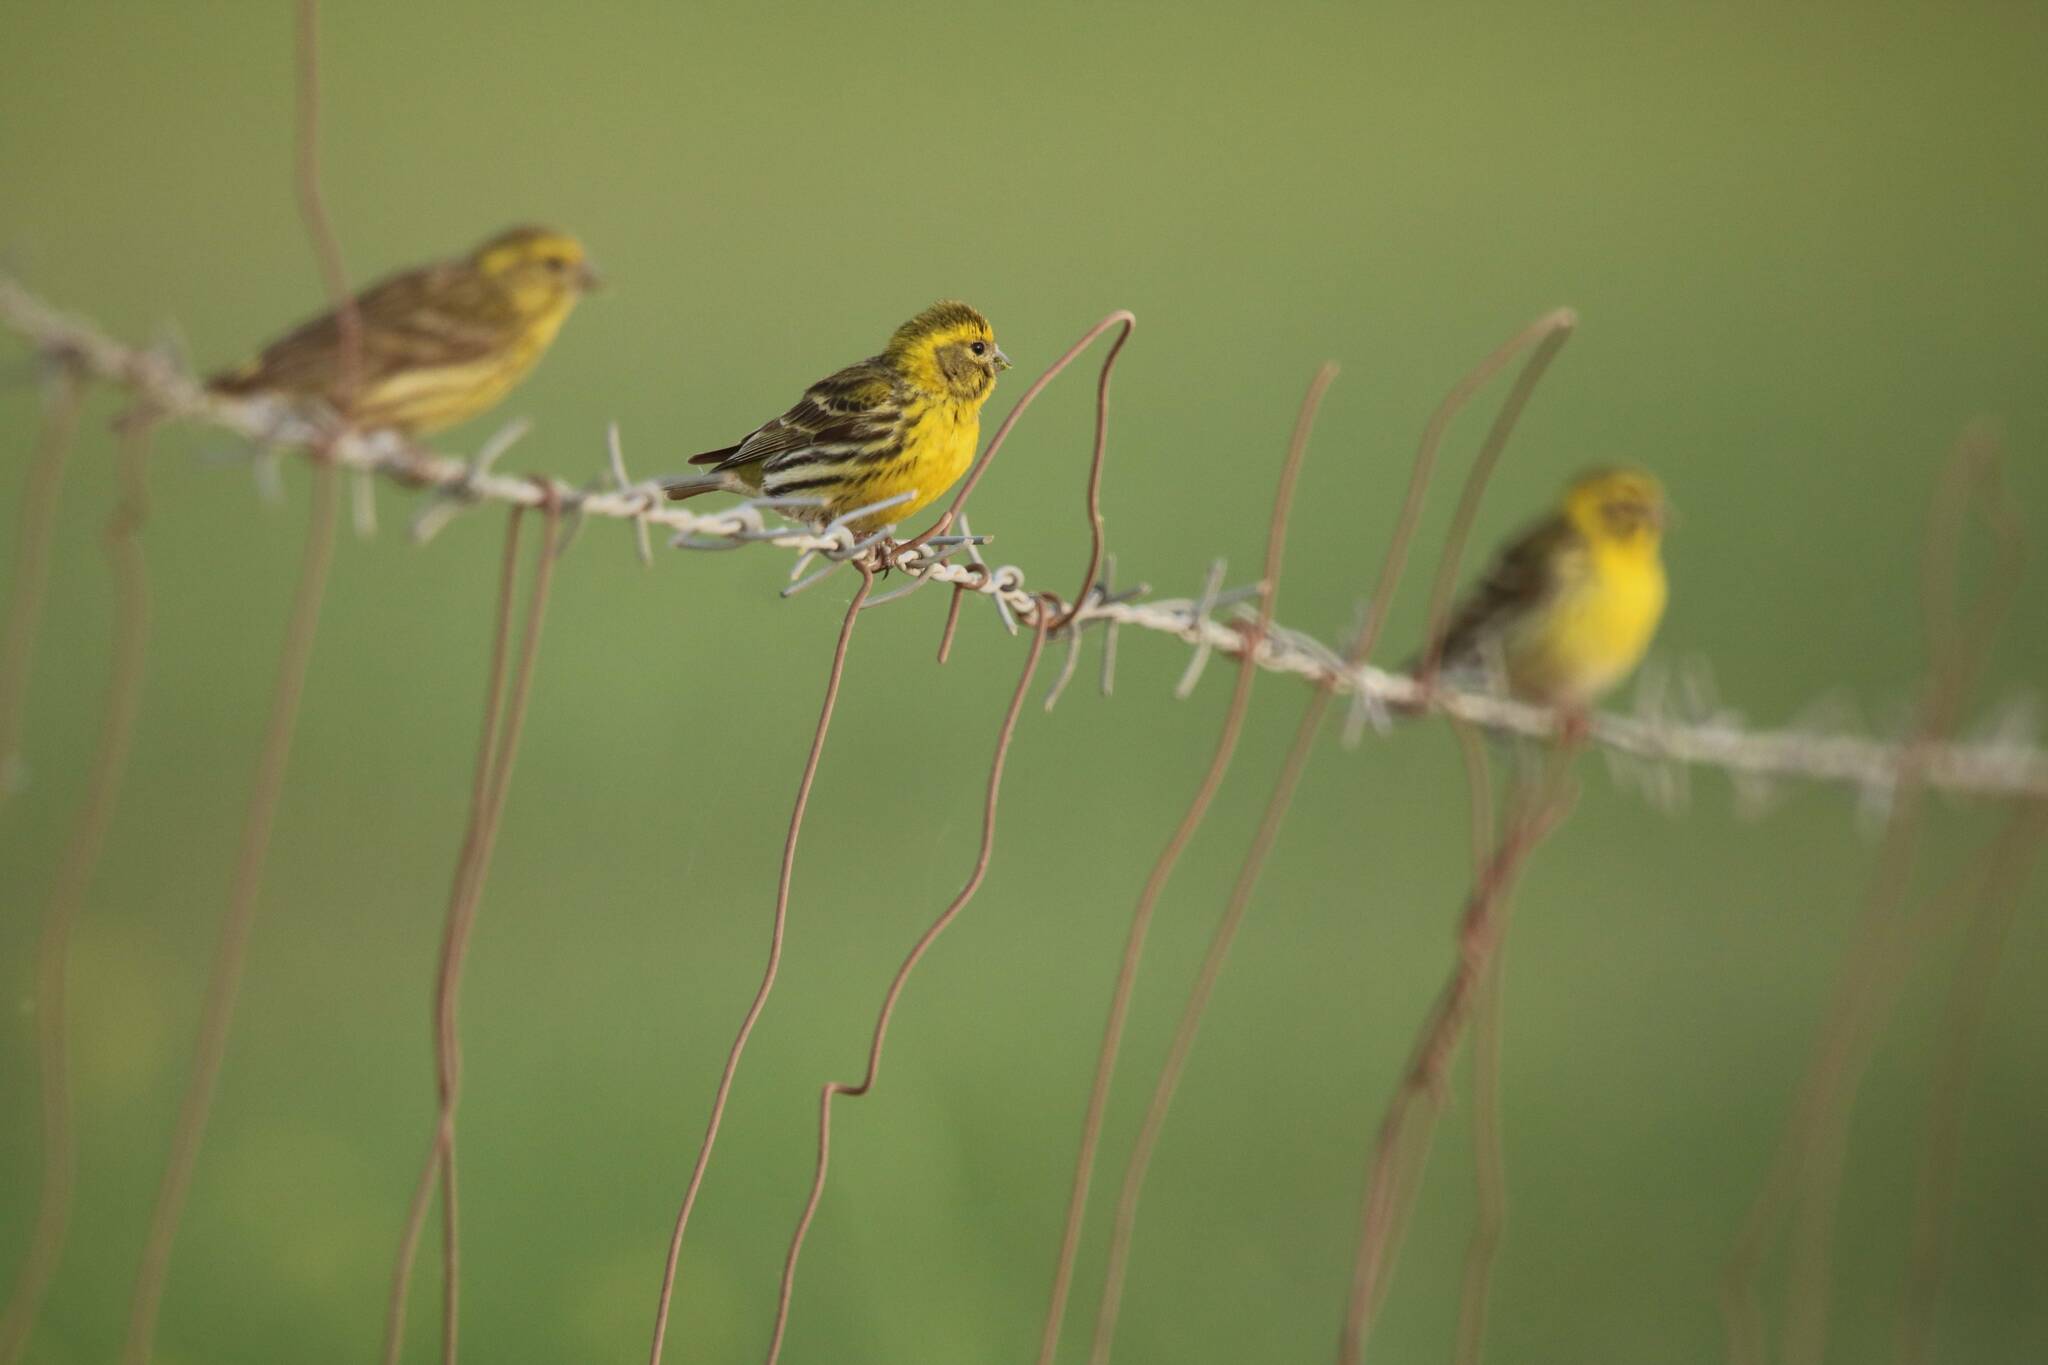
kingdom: Animalia
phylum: Chordata
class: Aves
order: Passeriformes
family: Fringillidae
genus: Serinus
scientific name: Serinus serinus
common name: European serin
